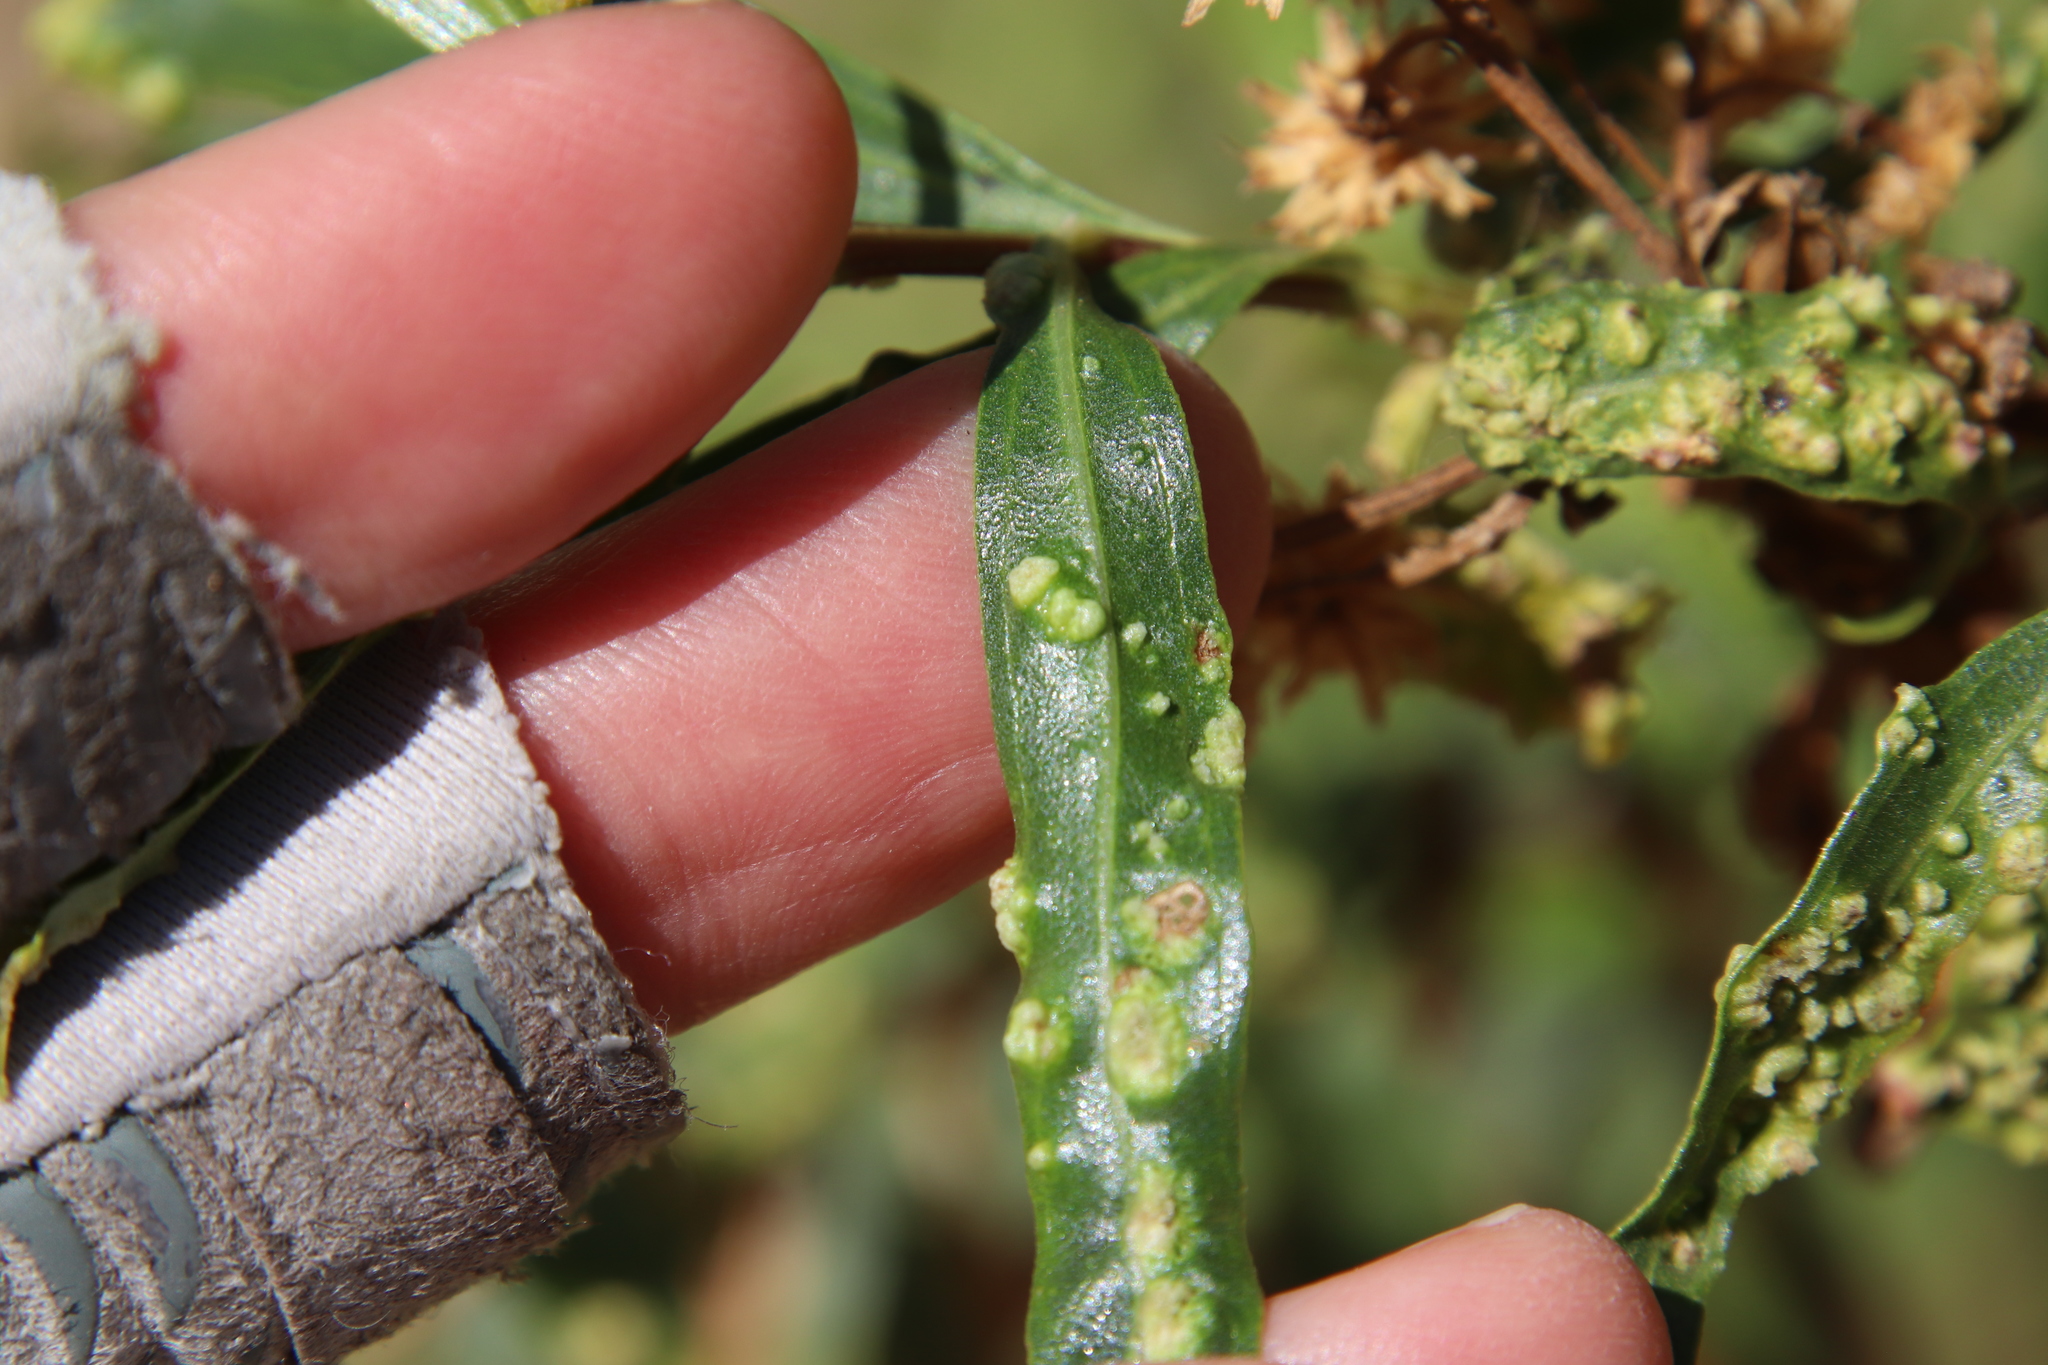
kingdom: Animalia
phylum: Arthropoda
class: Arachnida
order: Trombidiformes
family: Eriophyidae
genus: Aceria
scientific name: Aceria
